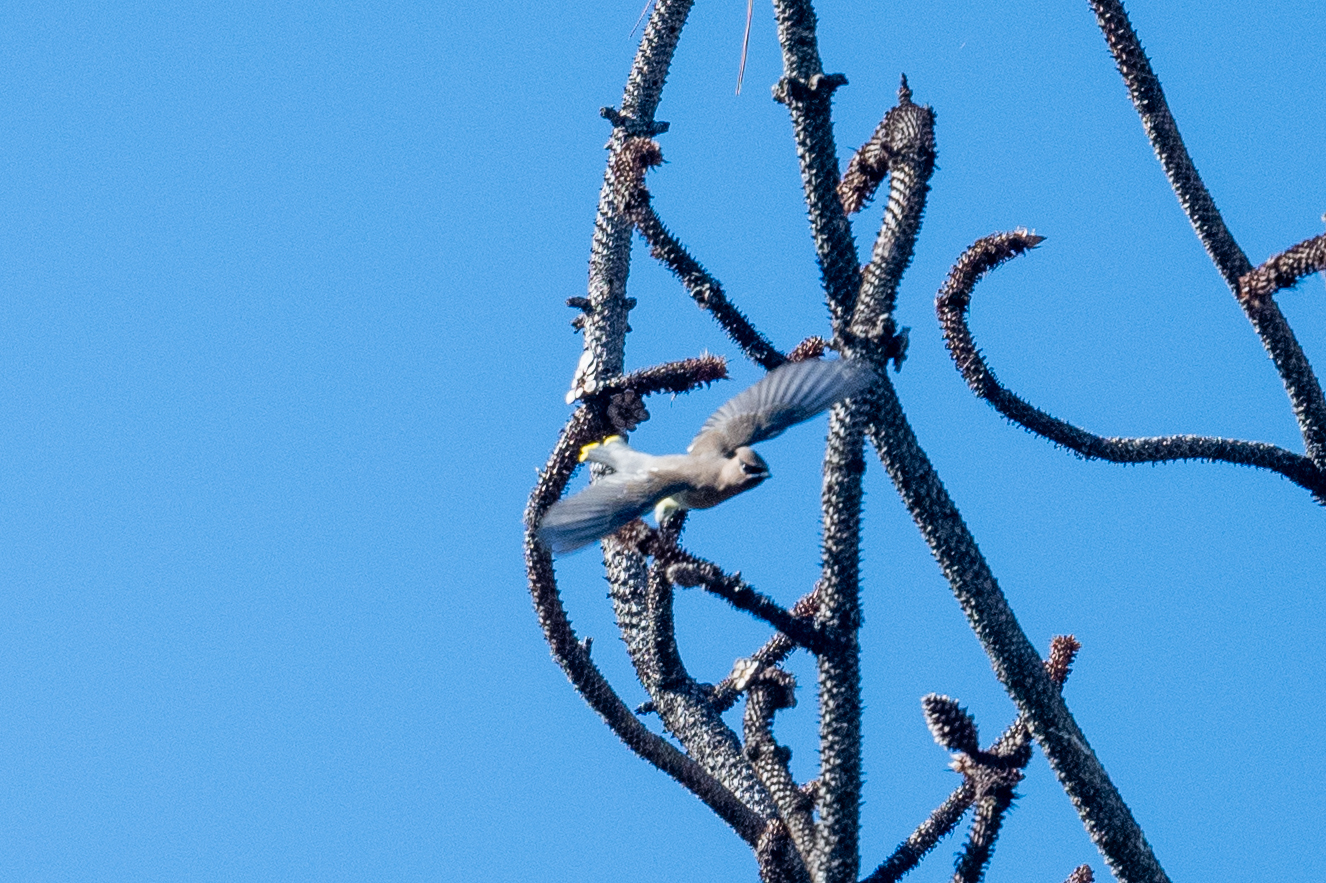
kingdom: Animalia
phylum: Chordata
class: Aves
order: Passeriformes
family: Bombycillidae
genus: Bombycilla
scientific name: Bombycilla cedrorum
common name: Cedar waxwing
